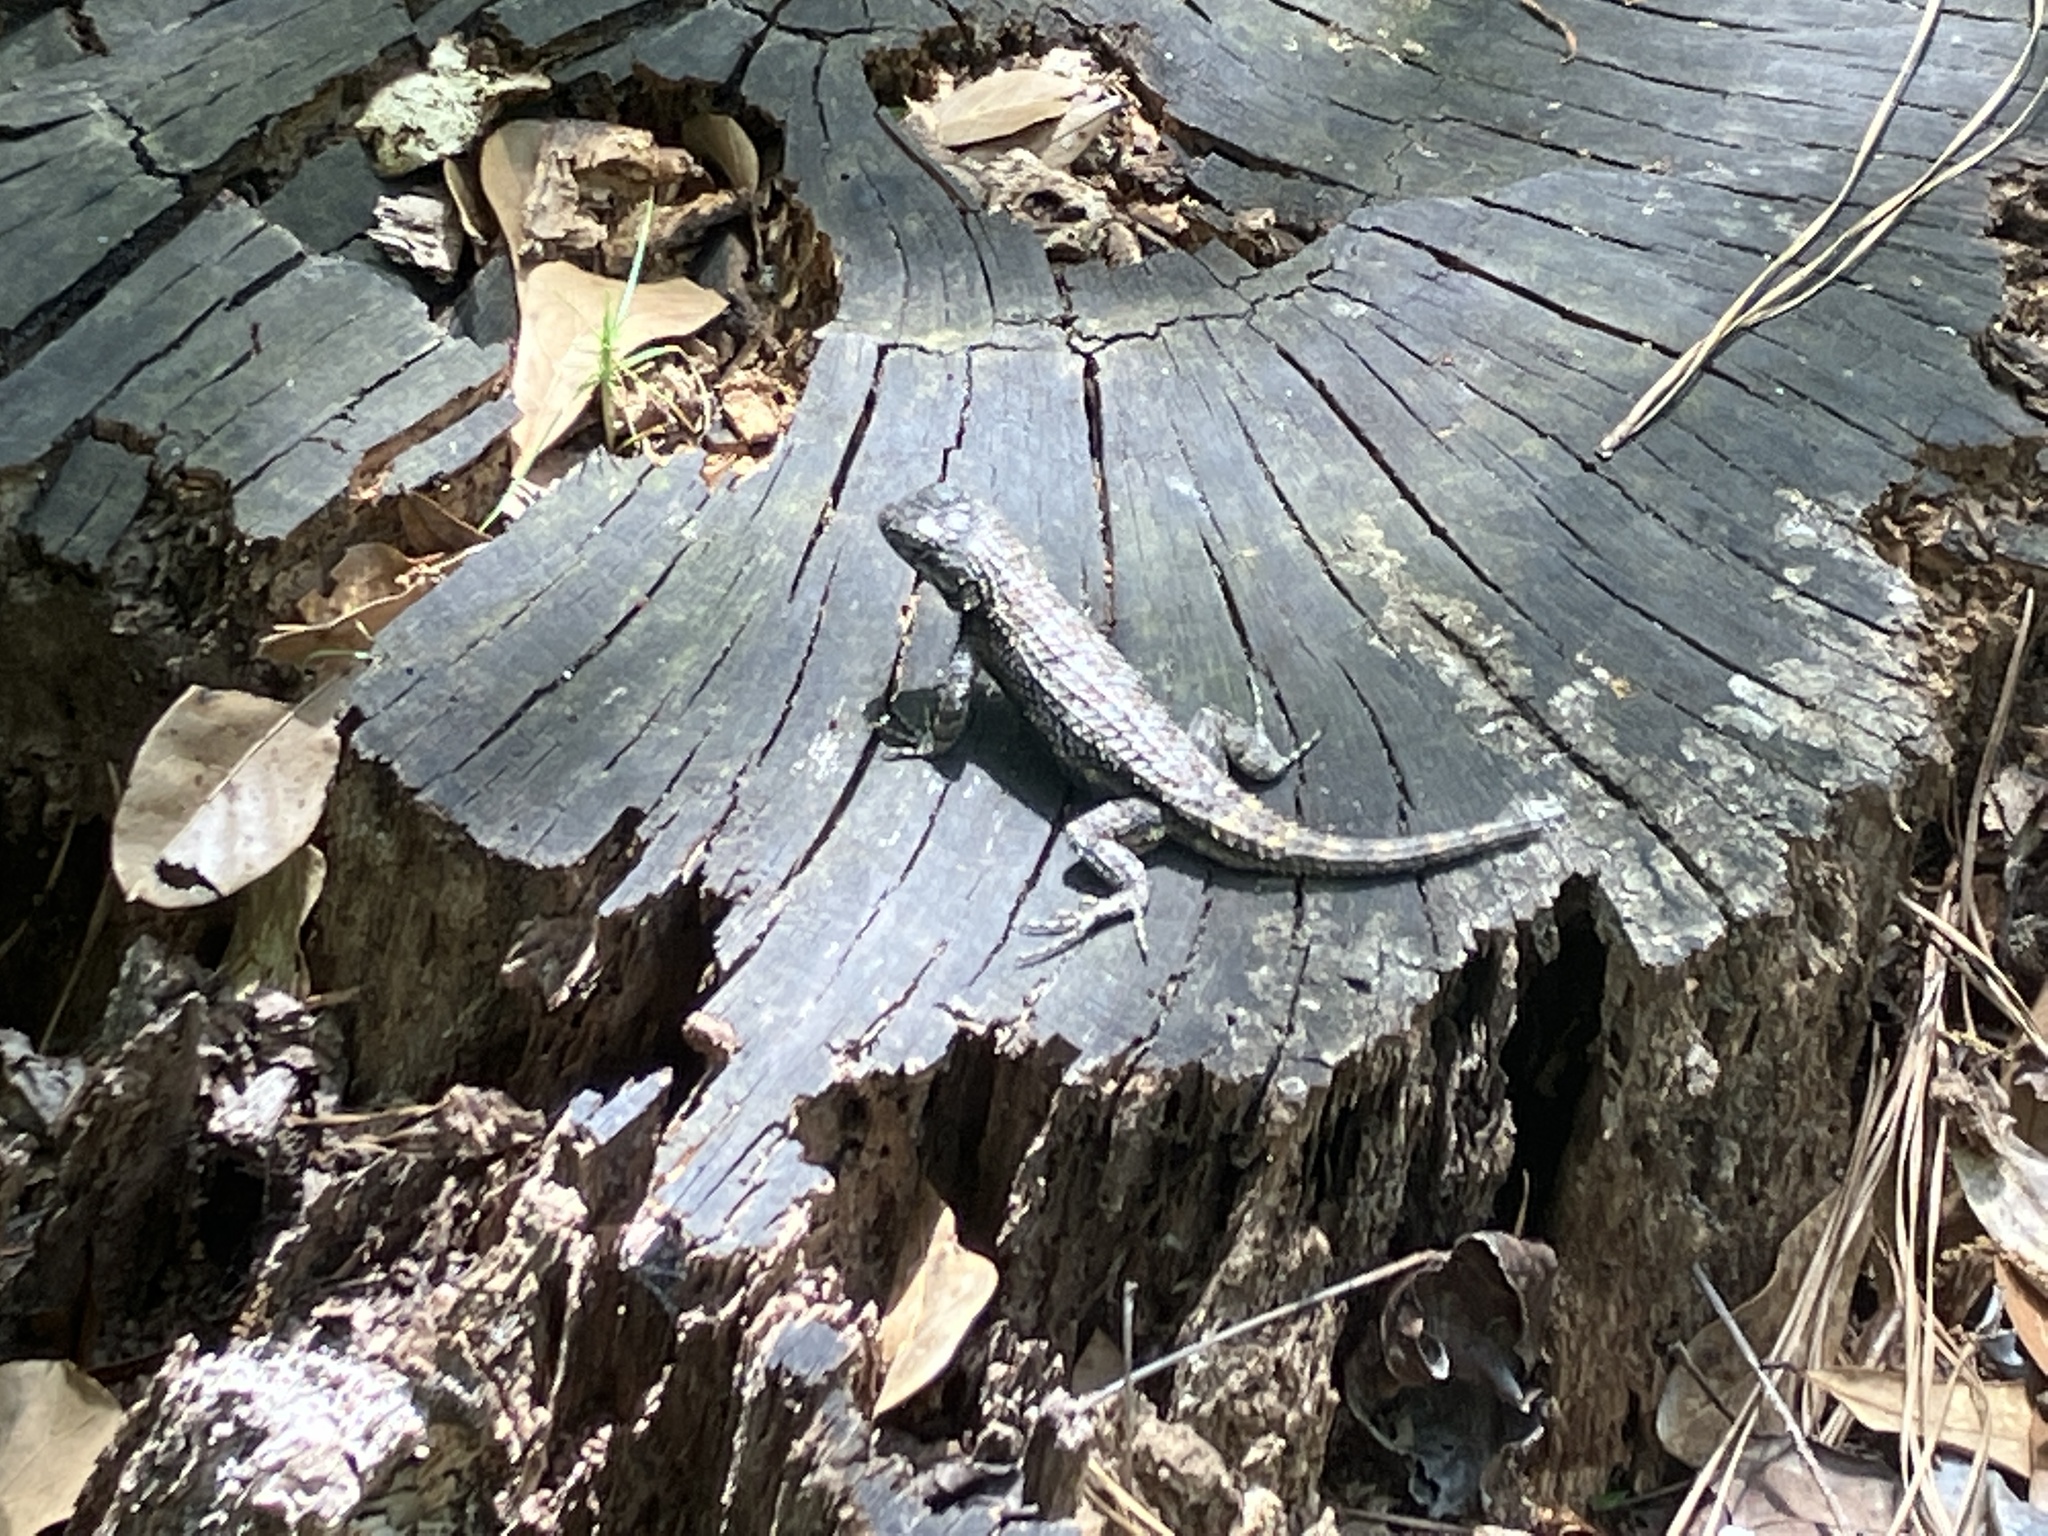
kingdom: Animalia
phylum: Chordata
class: Squamata
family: Phrynosomatidae
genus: Sceloporus
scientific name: Sceloporus undulatus
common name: Eastern fence lizard
